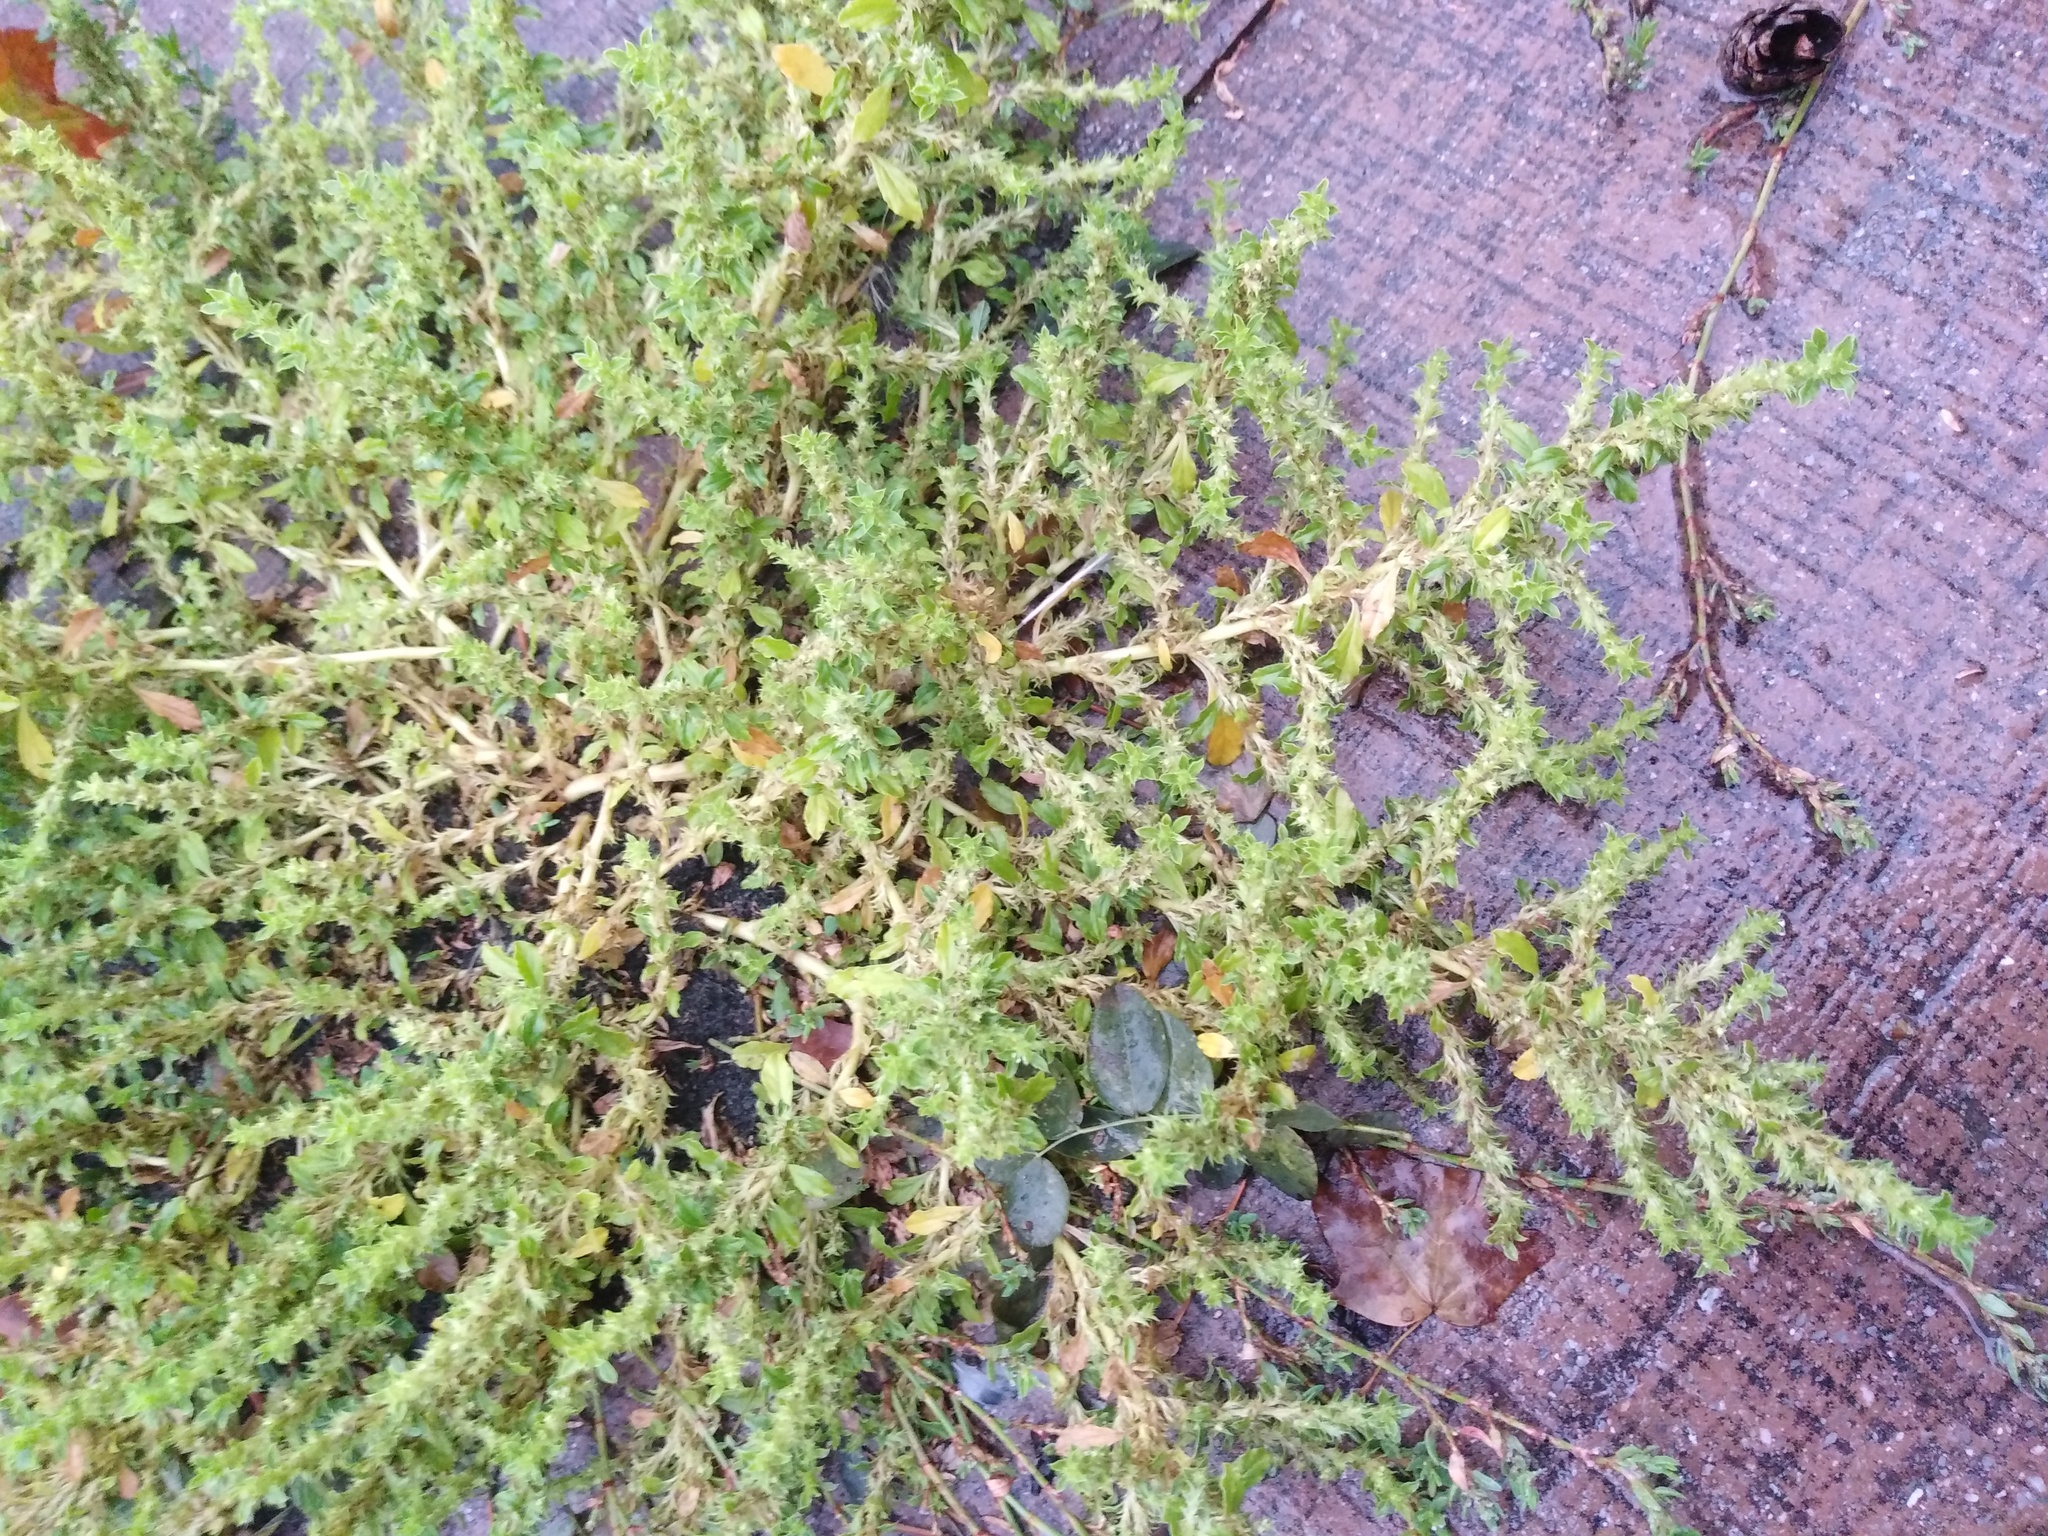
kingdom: Plantae
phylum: Tracheophyta
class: Magnoliopsida
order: Caryophyllales
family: Amaranthaceae
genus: Amaranthus
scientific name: Amaranthus albus
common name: White pigweed
